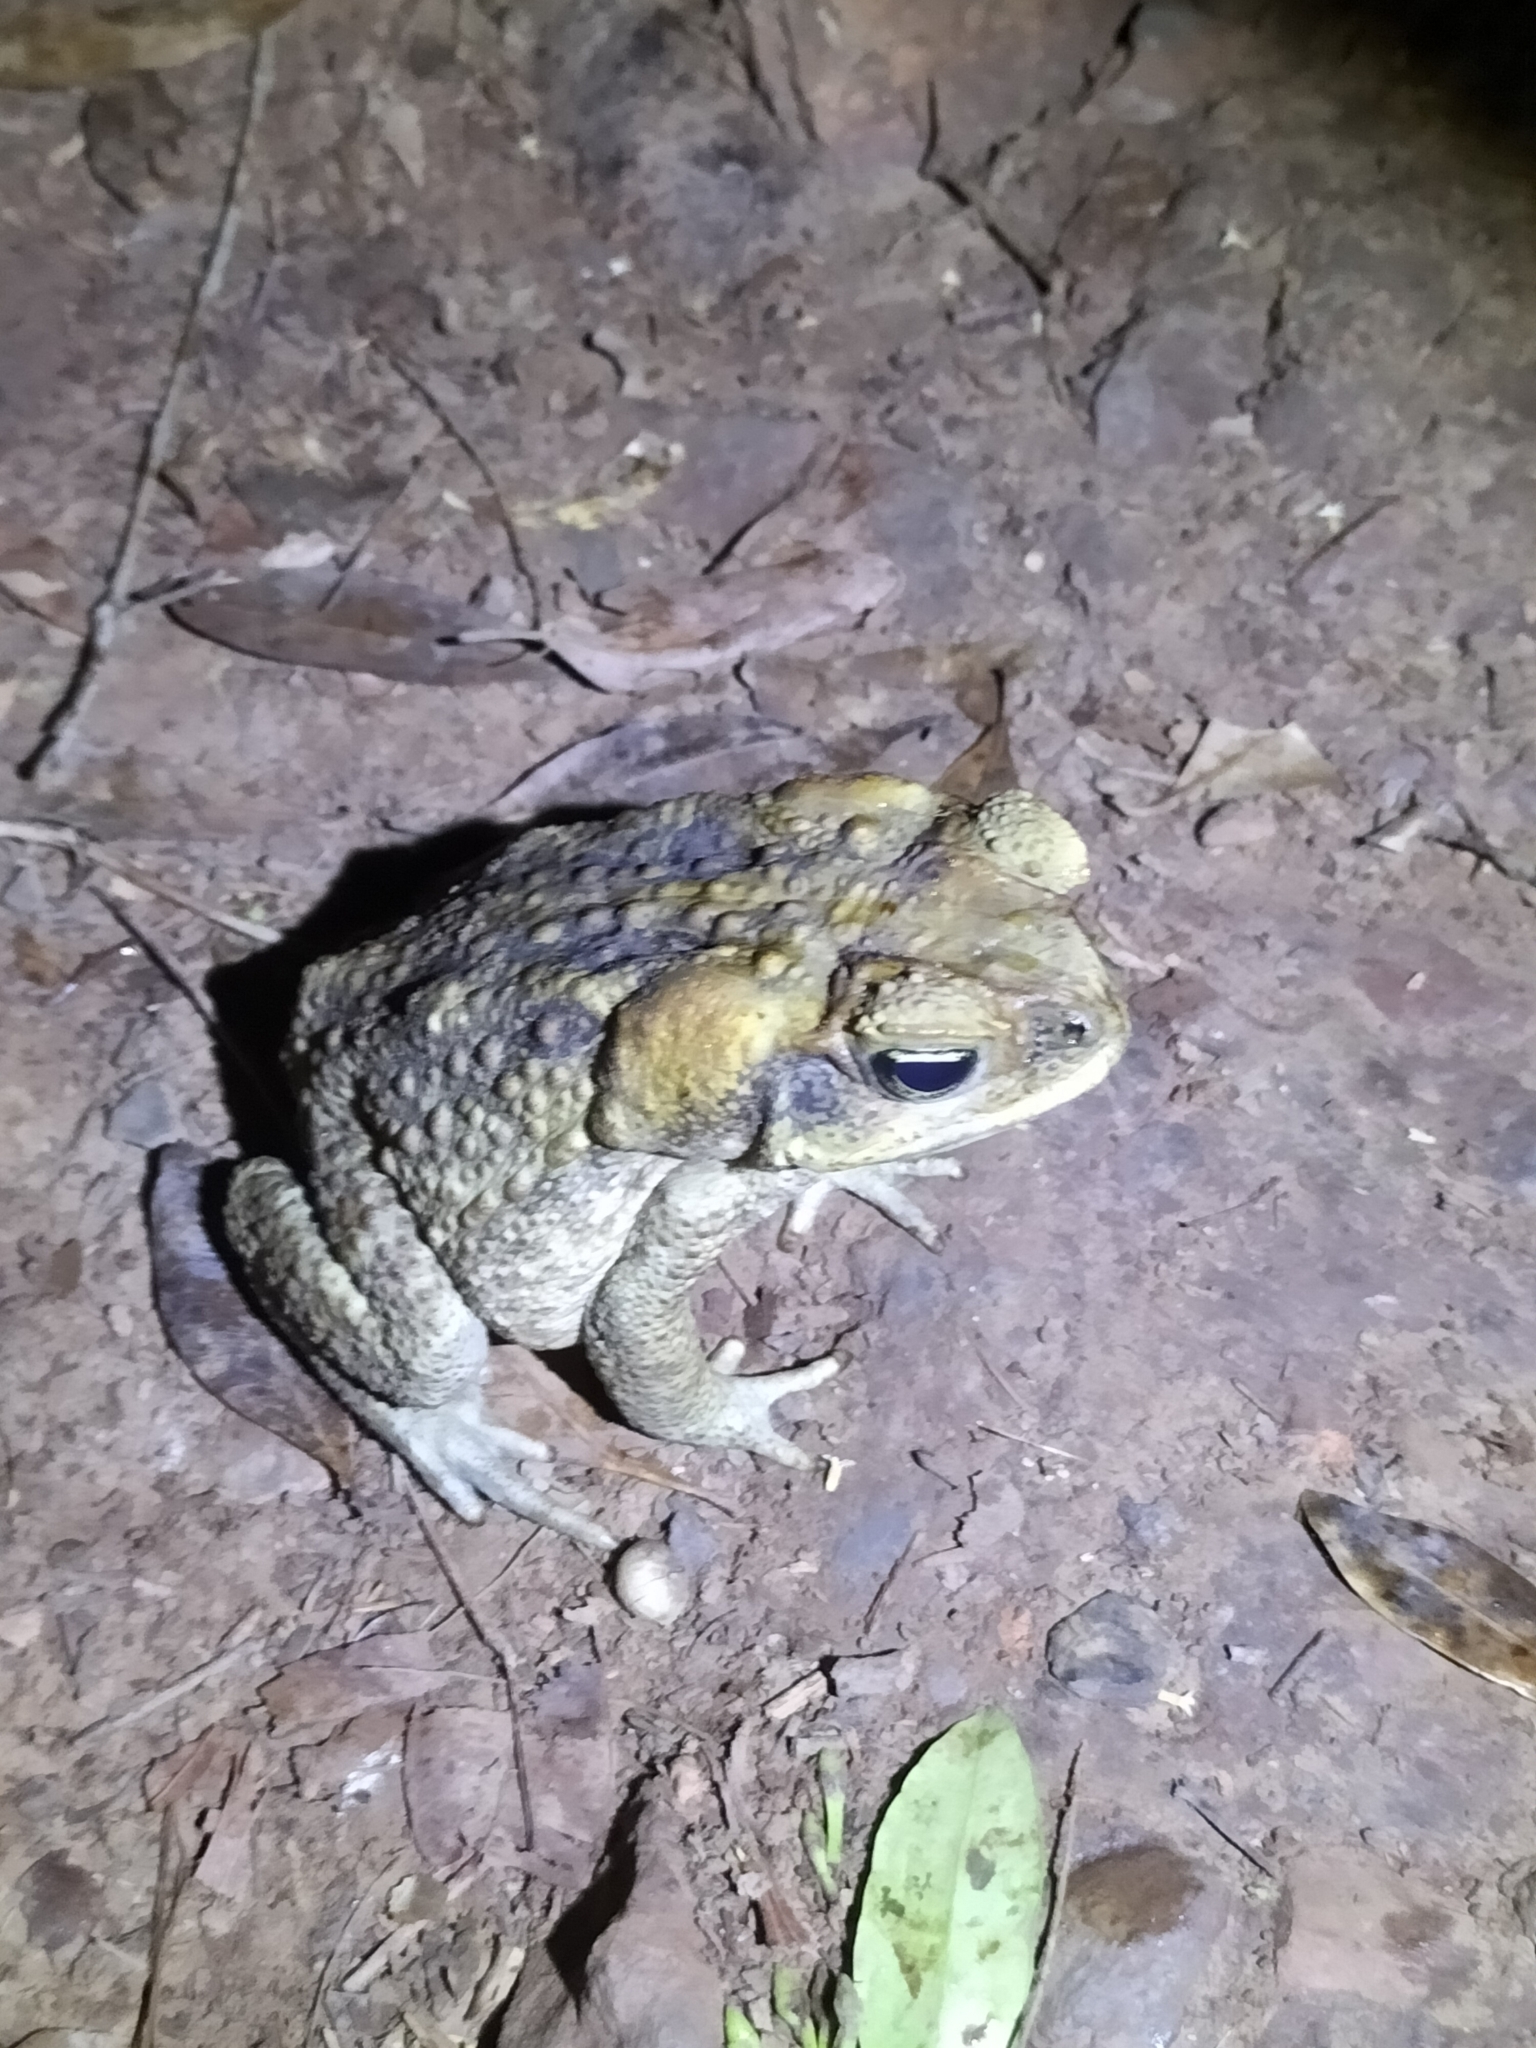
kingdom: Animalia
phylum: Chordata
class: Amphibia
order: Anura
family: Bufonidae
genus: Rhinella
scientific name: Rhinella marina
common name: Cane toad
